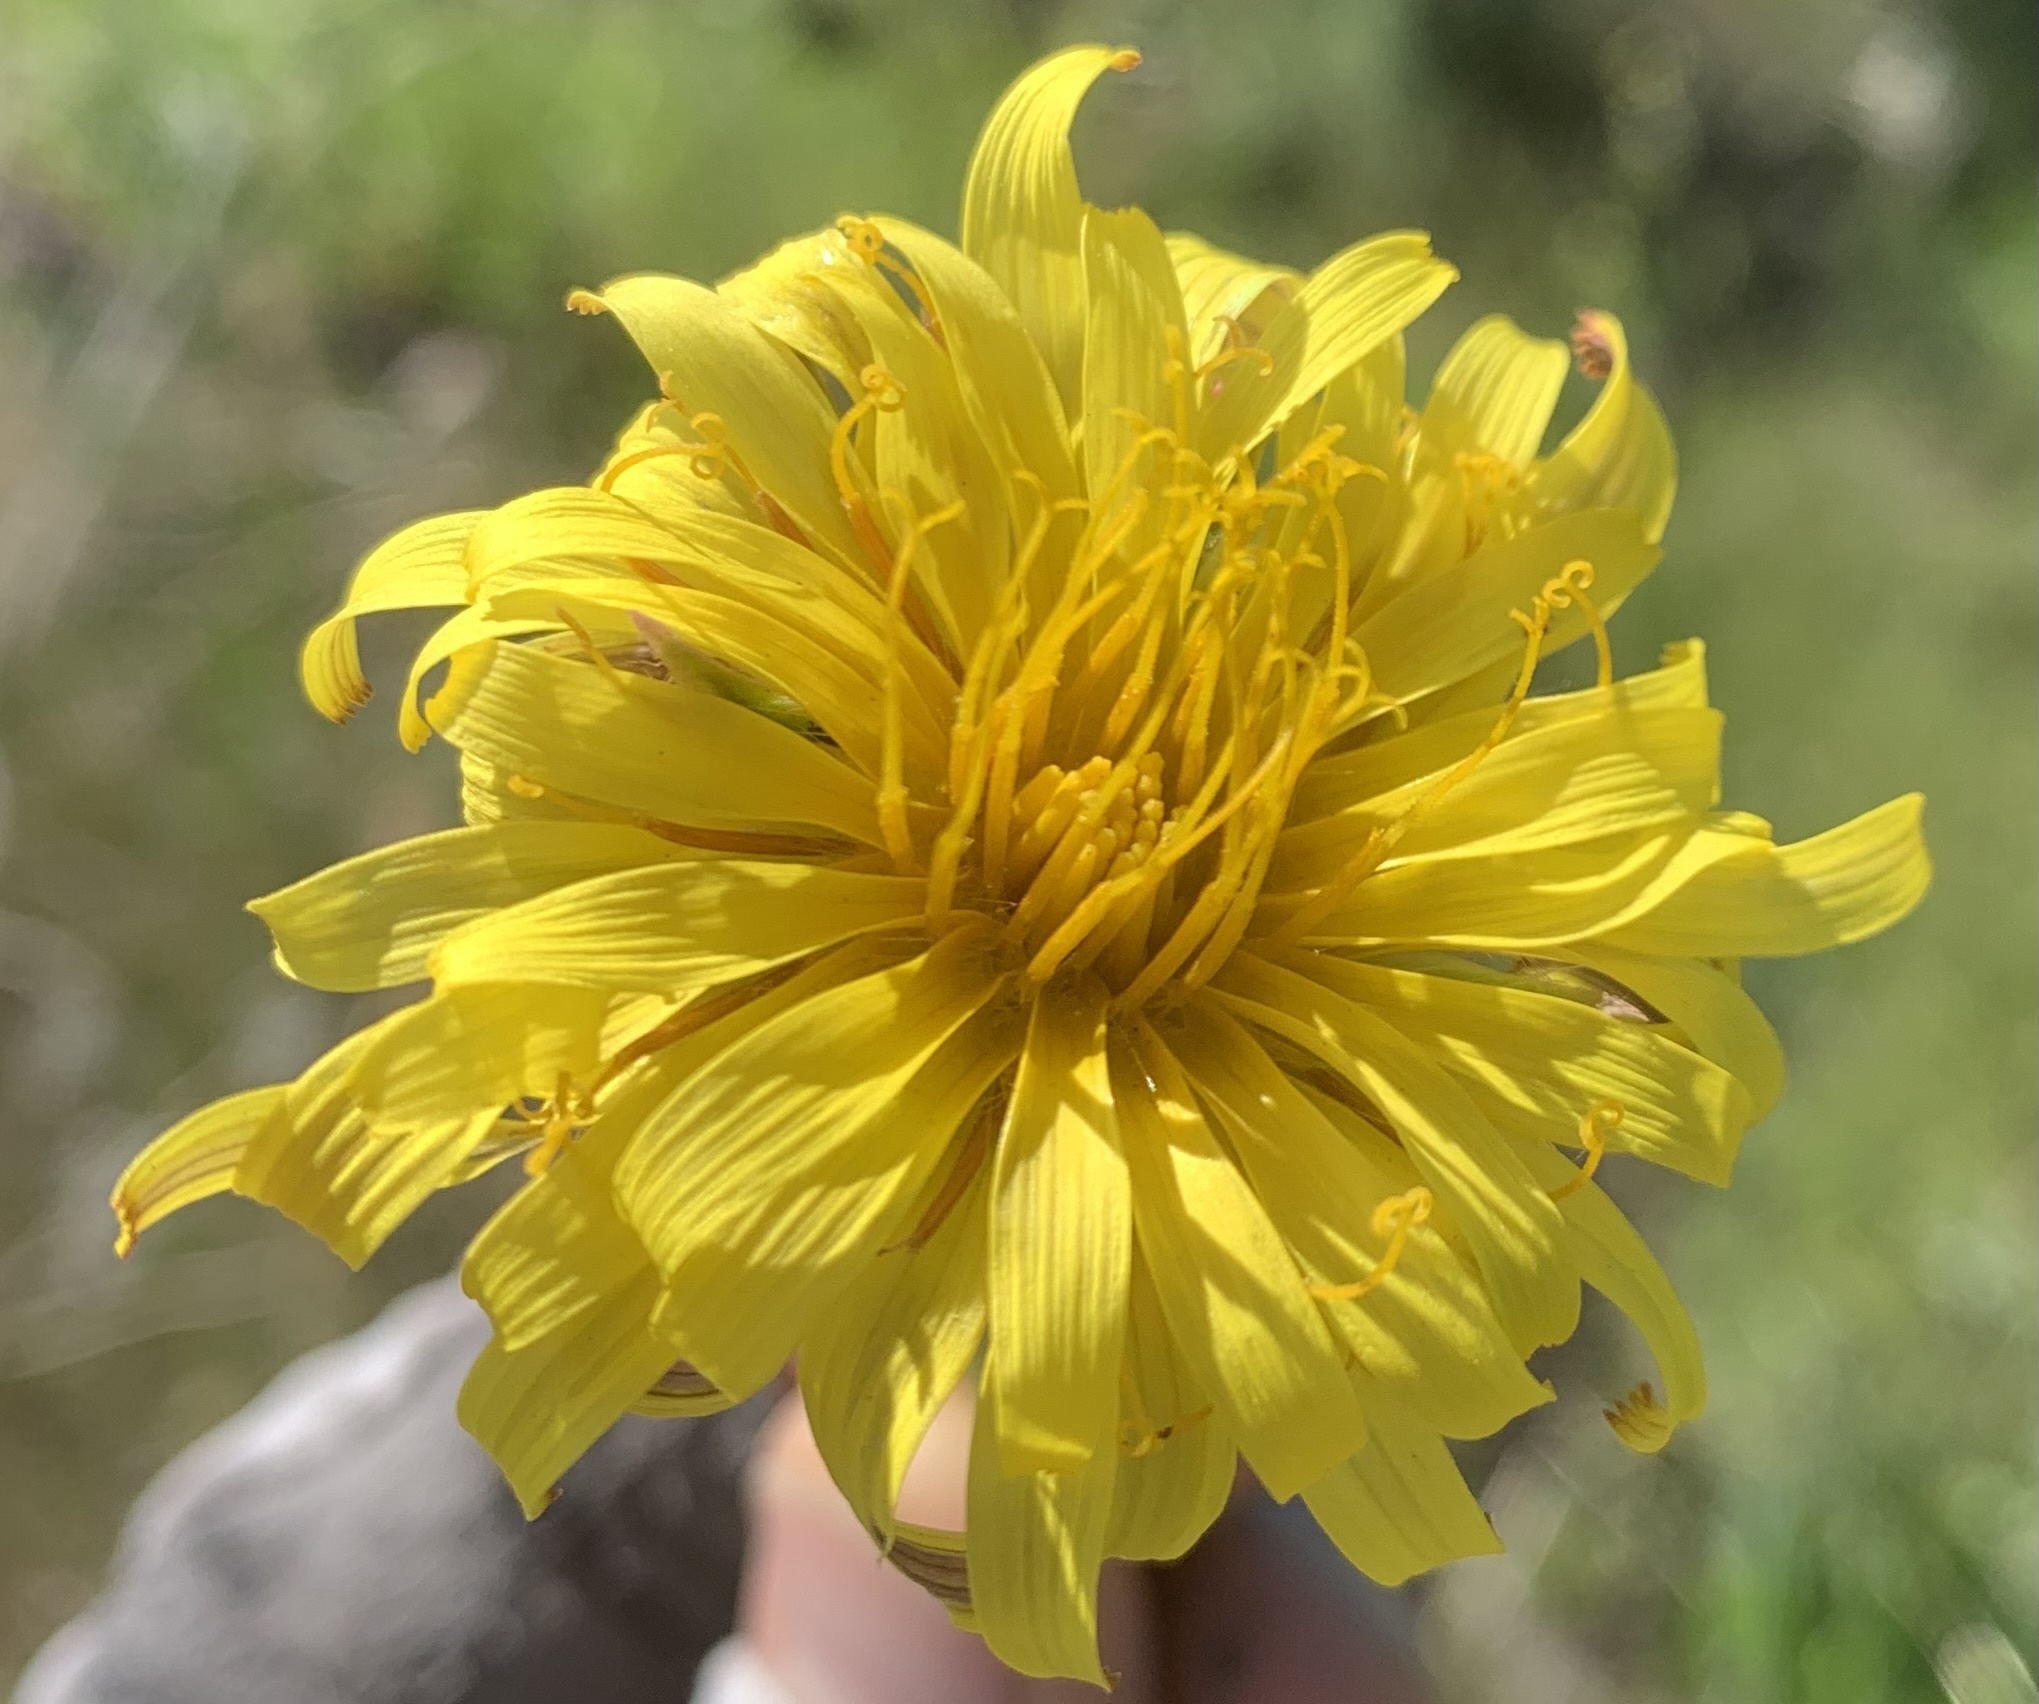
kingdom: Plantae
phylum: Tracheophyta
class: Magnoliopsida
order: Asterales
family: Asteraceae
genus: Agoseris
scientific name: Agoseris glauca
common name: Prairie agoseris
